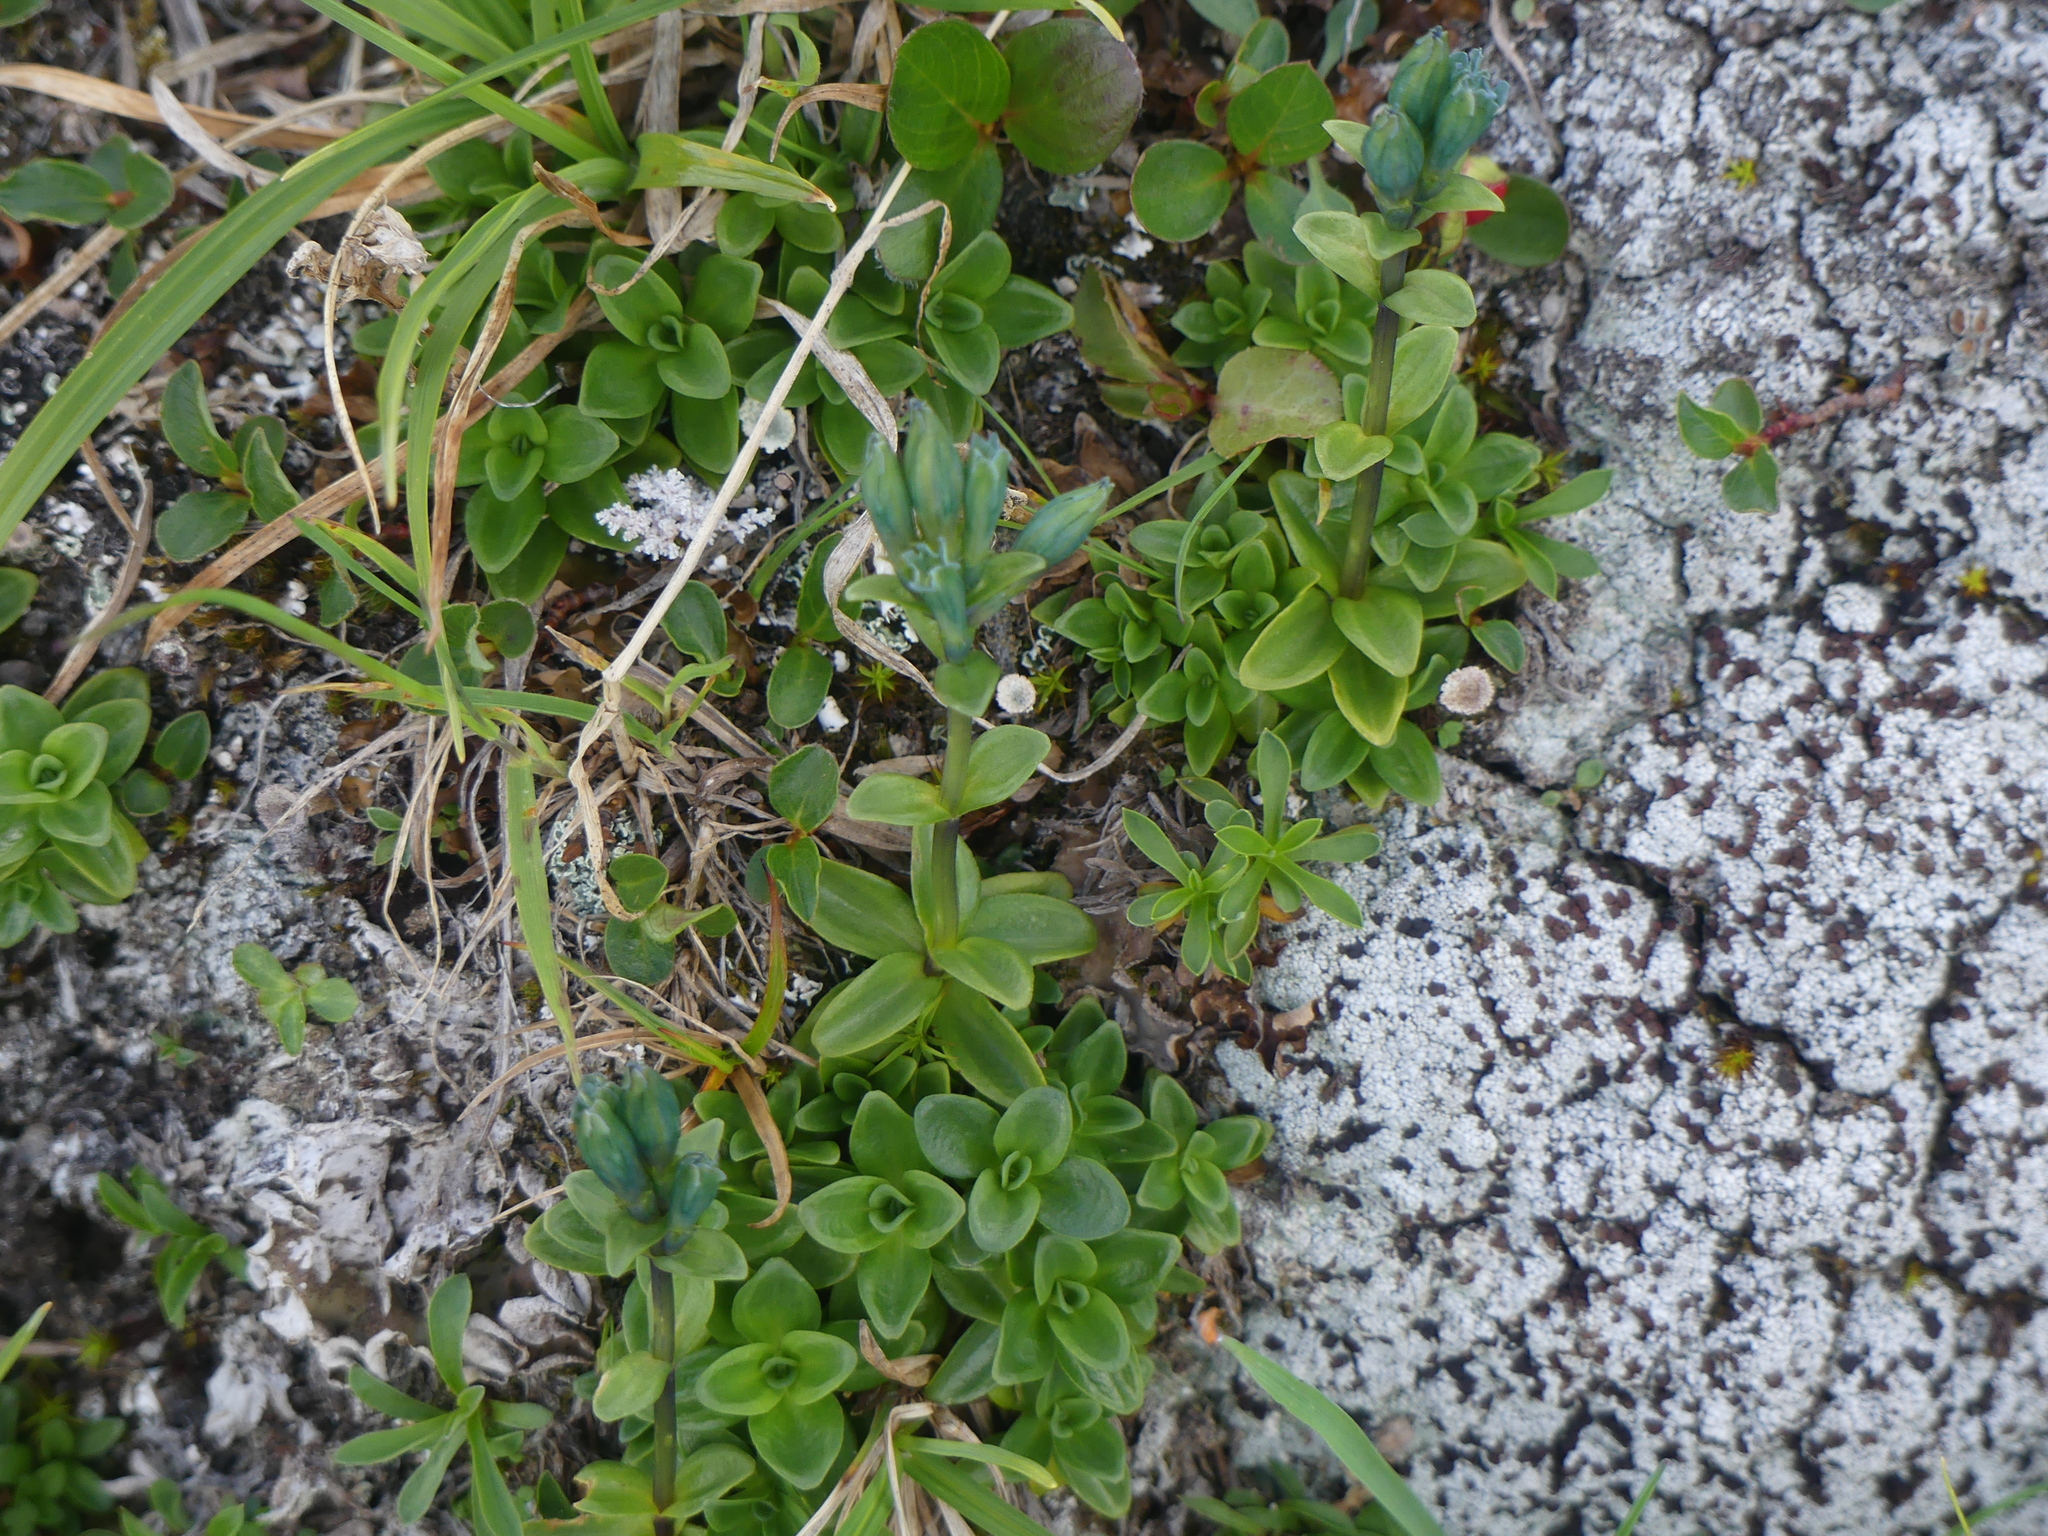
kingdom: Plantae
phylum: Tracheophyta
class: Magnoliopsida
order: Gentianales
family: Gentianaceae
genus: Gentiana
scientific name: Gentiana glauca
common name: Alpine gentian
